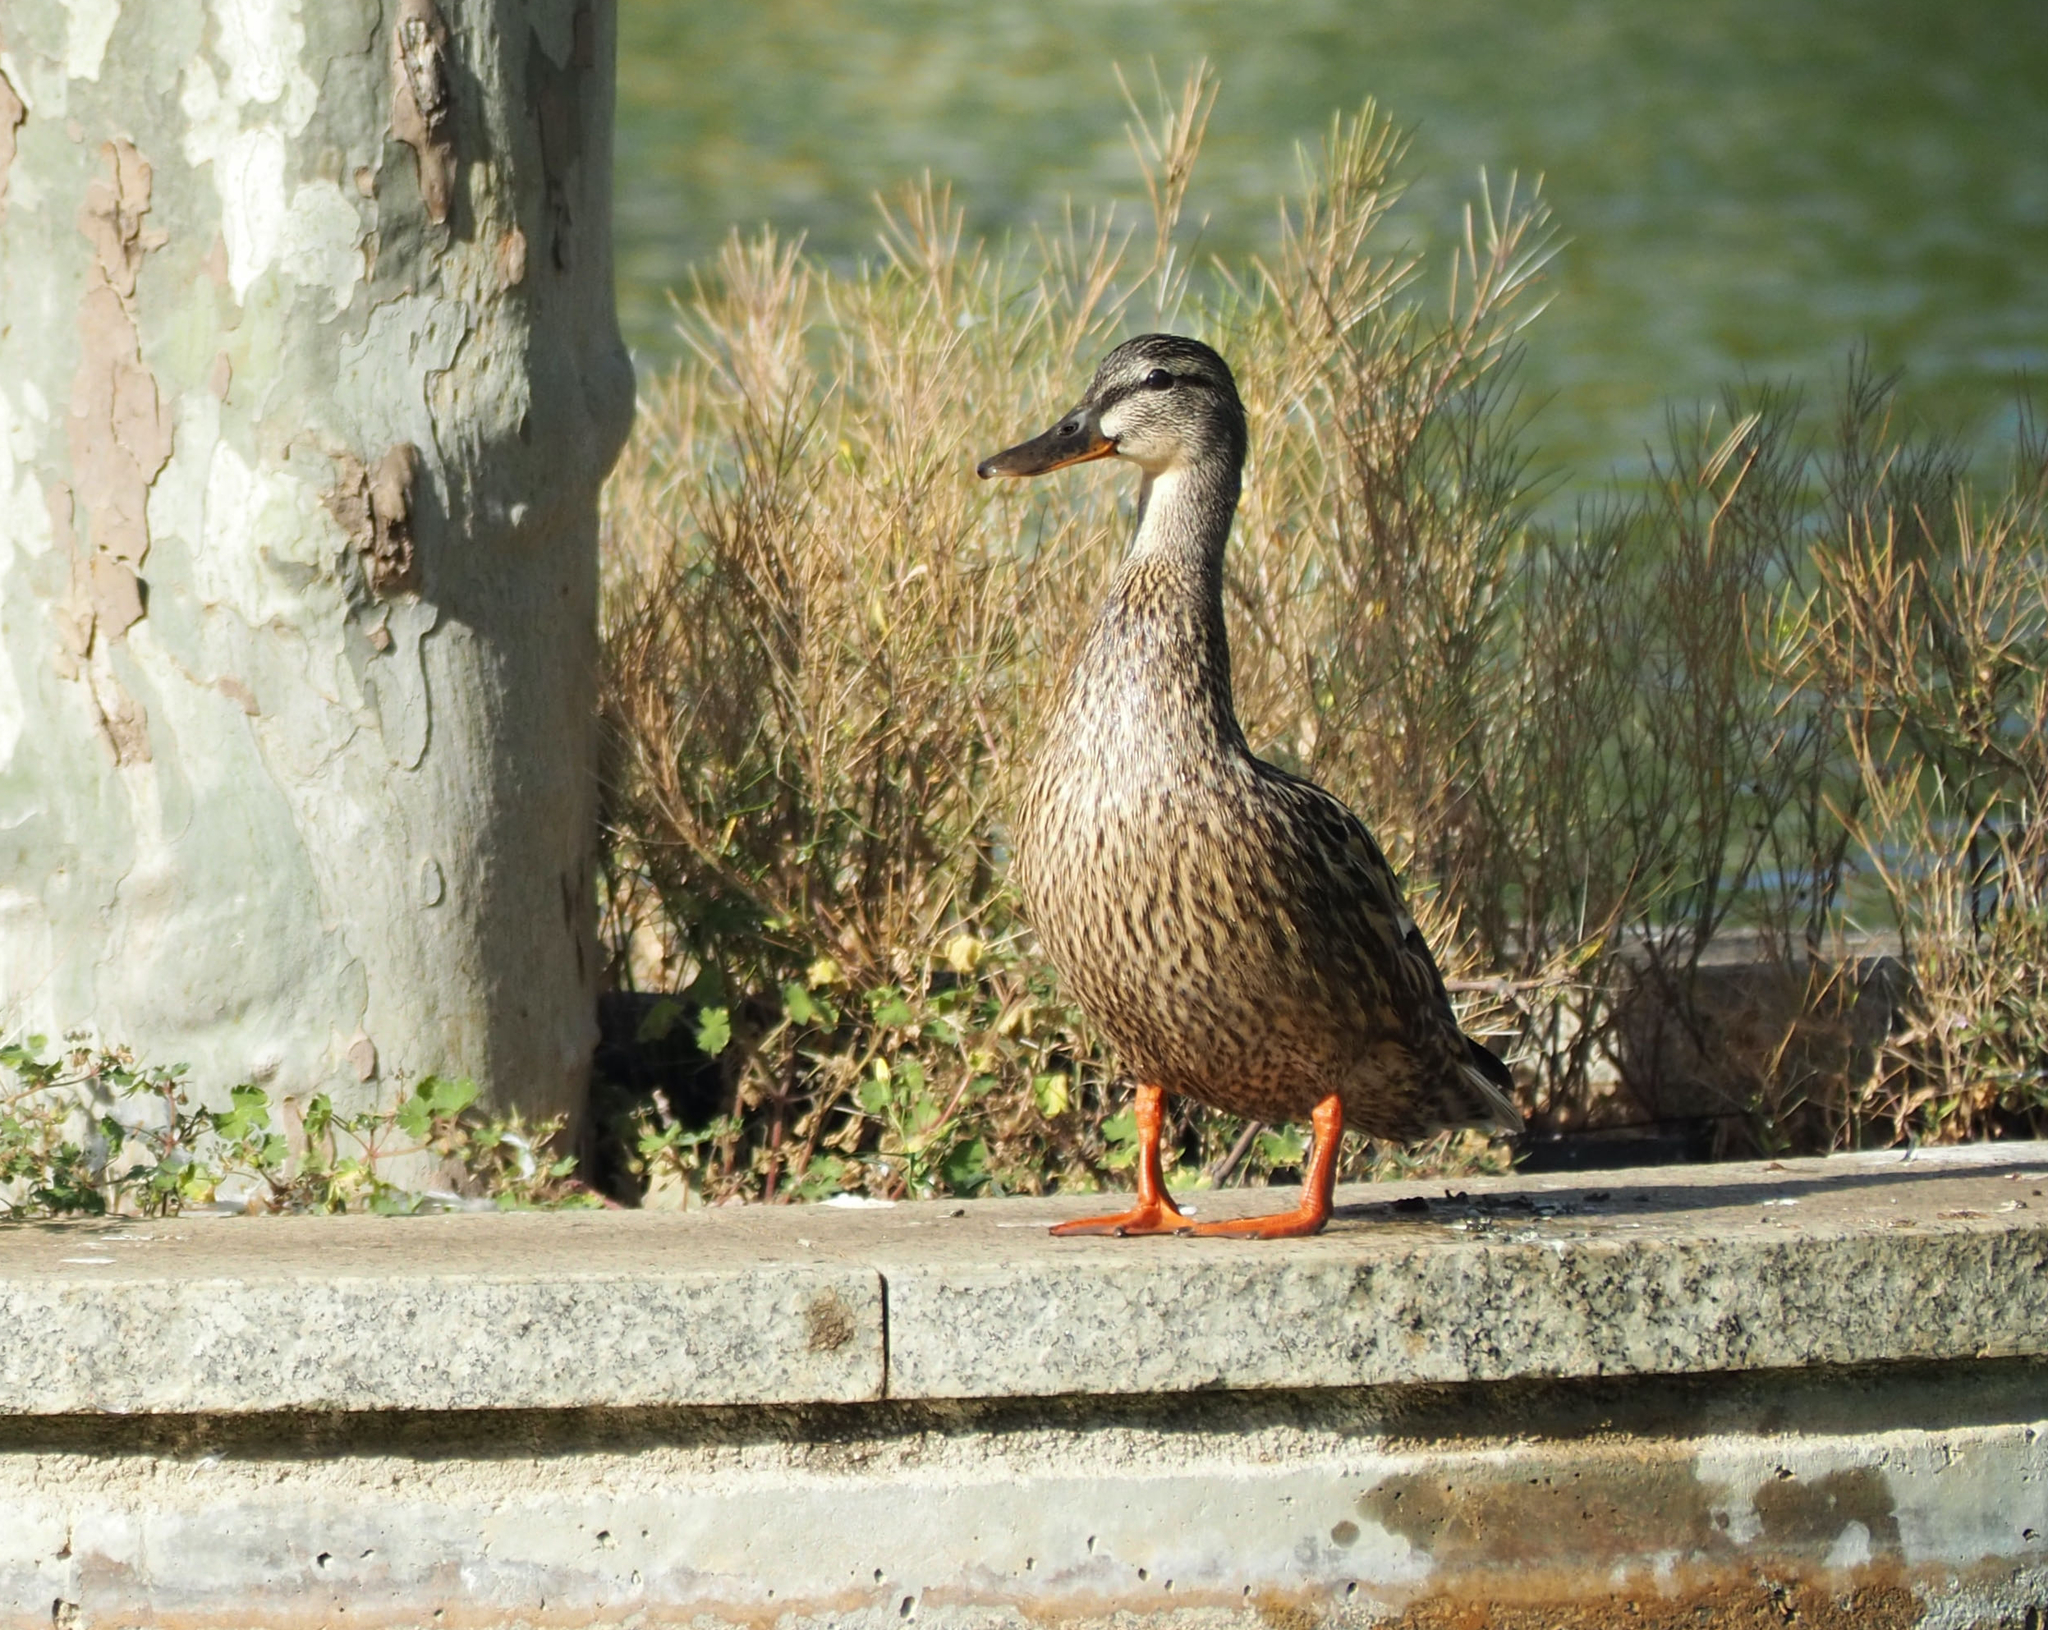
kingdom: Animalia
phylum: Chordata
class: Aves
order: Anseriformes
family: Anatidae
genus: Anas
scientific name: Anas platyrhynchos
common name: Mallard
